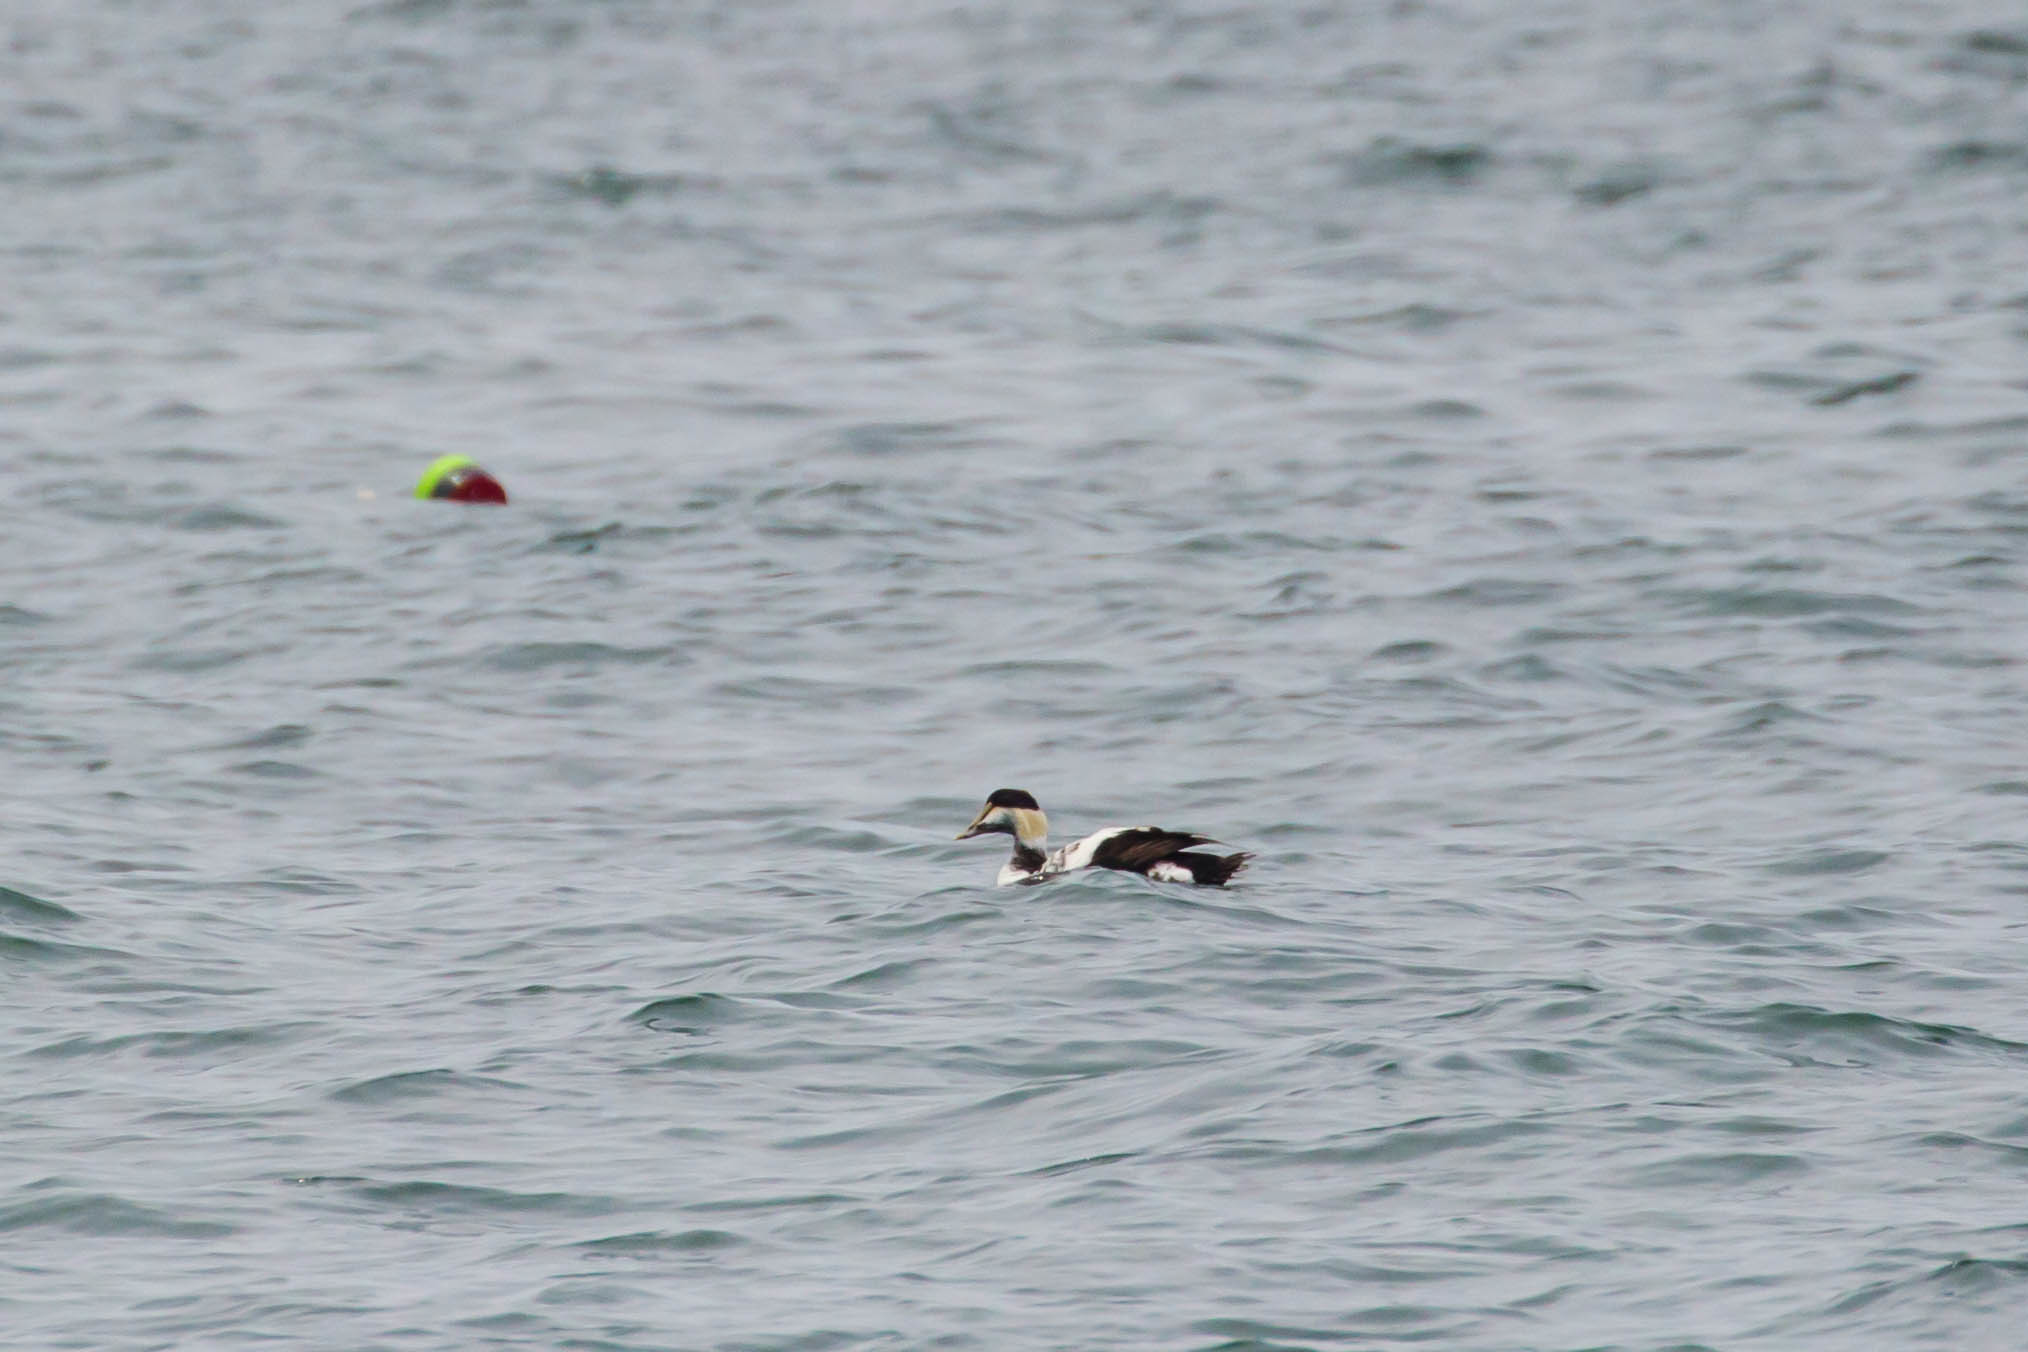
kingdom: Animalia
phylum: Chordata
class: Aves
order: Anseriformes
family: Anatidae
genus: Somateria
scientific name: Somateria mollissima
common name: Common eider
